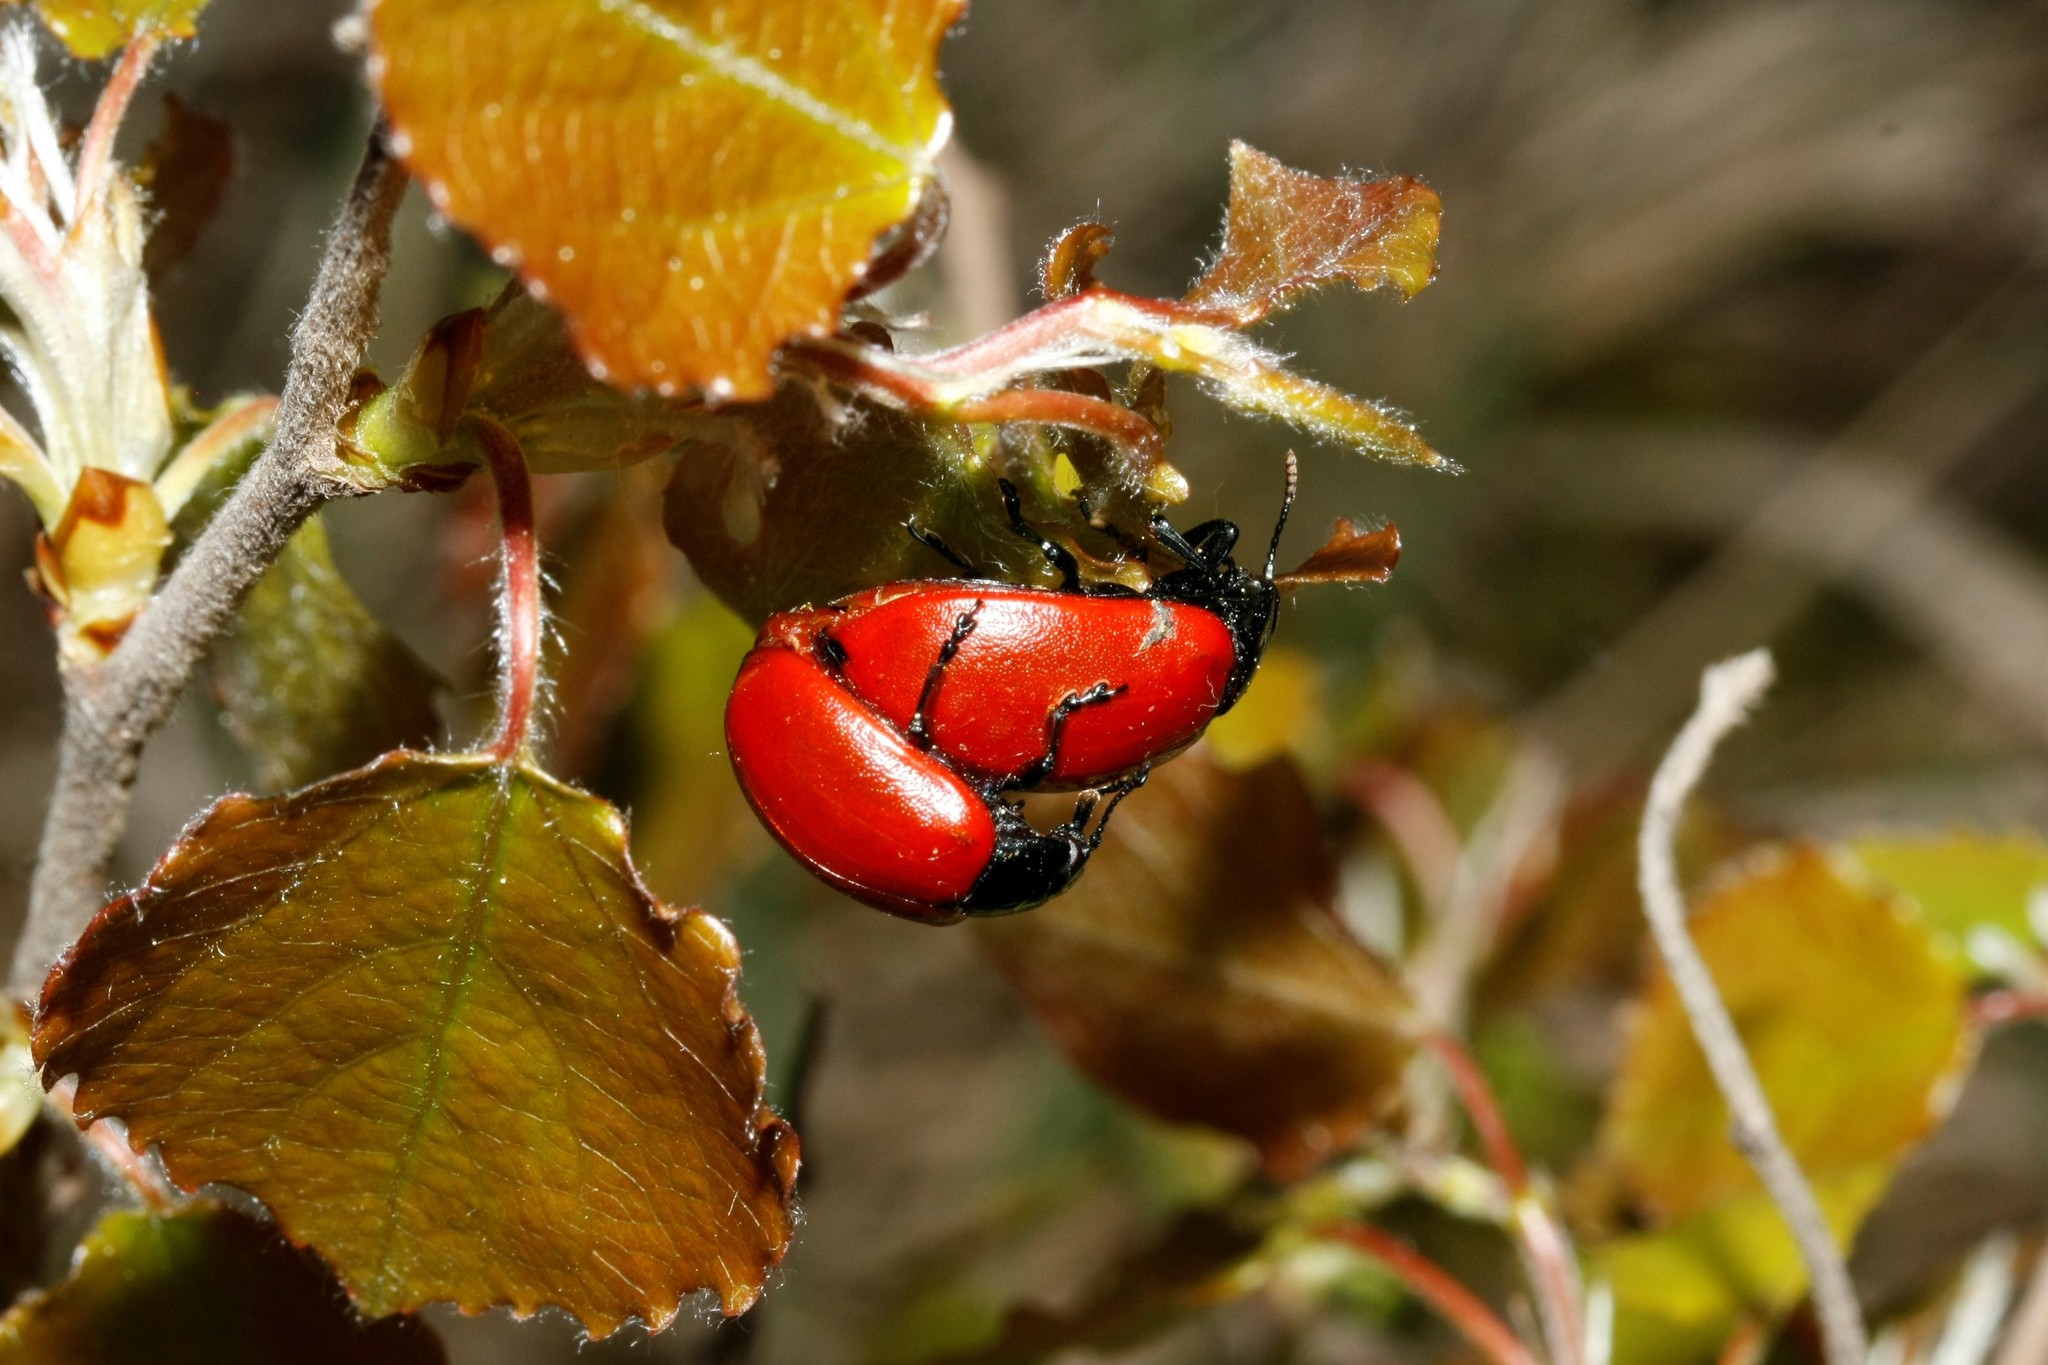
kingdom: Animalia
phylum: Arthropoda
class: Insecta
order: Coleoptera
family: Chrysomelidae
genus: Chrysomela
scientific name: Chrysomela populi
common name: Red poplar leaf beetle
